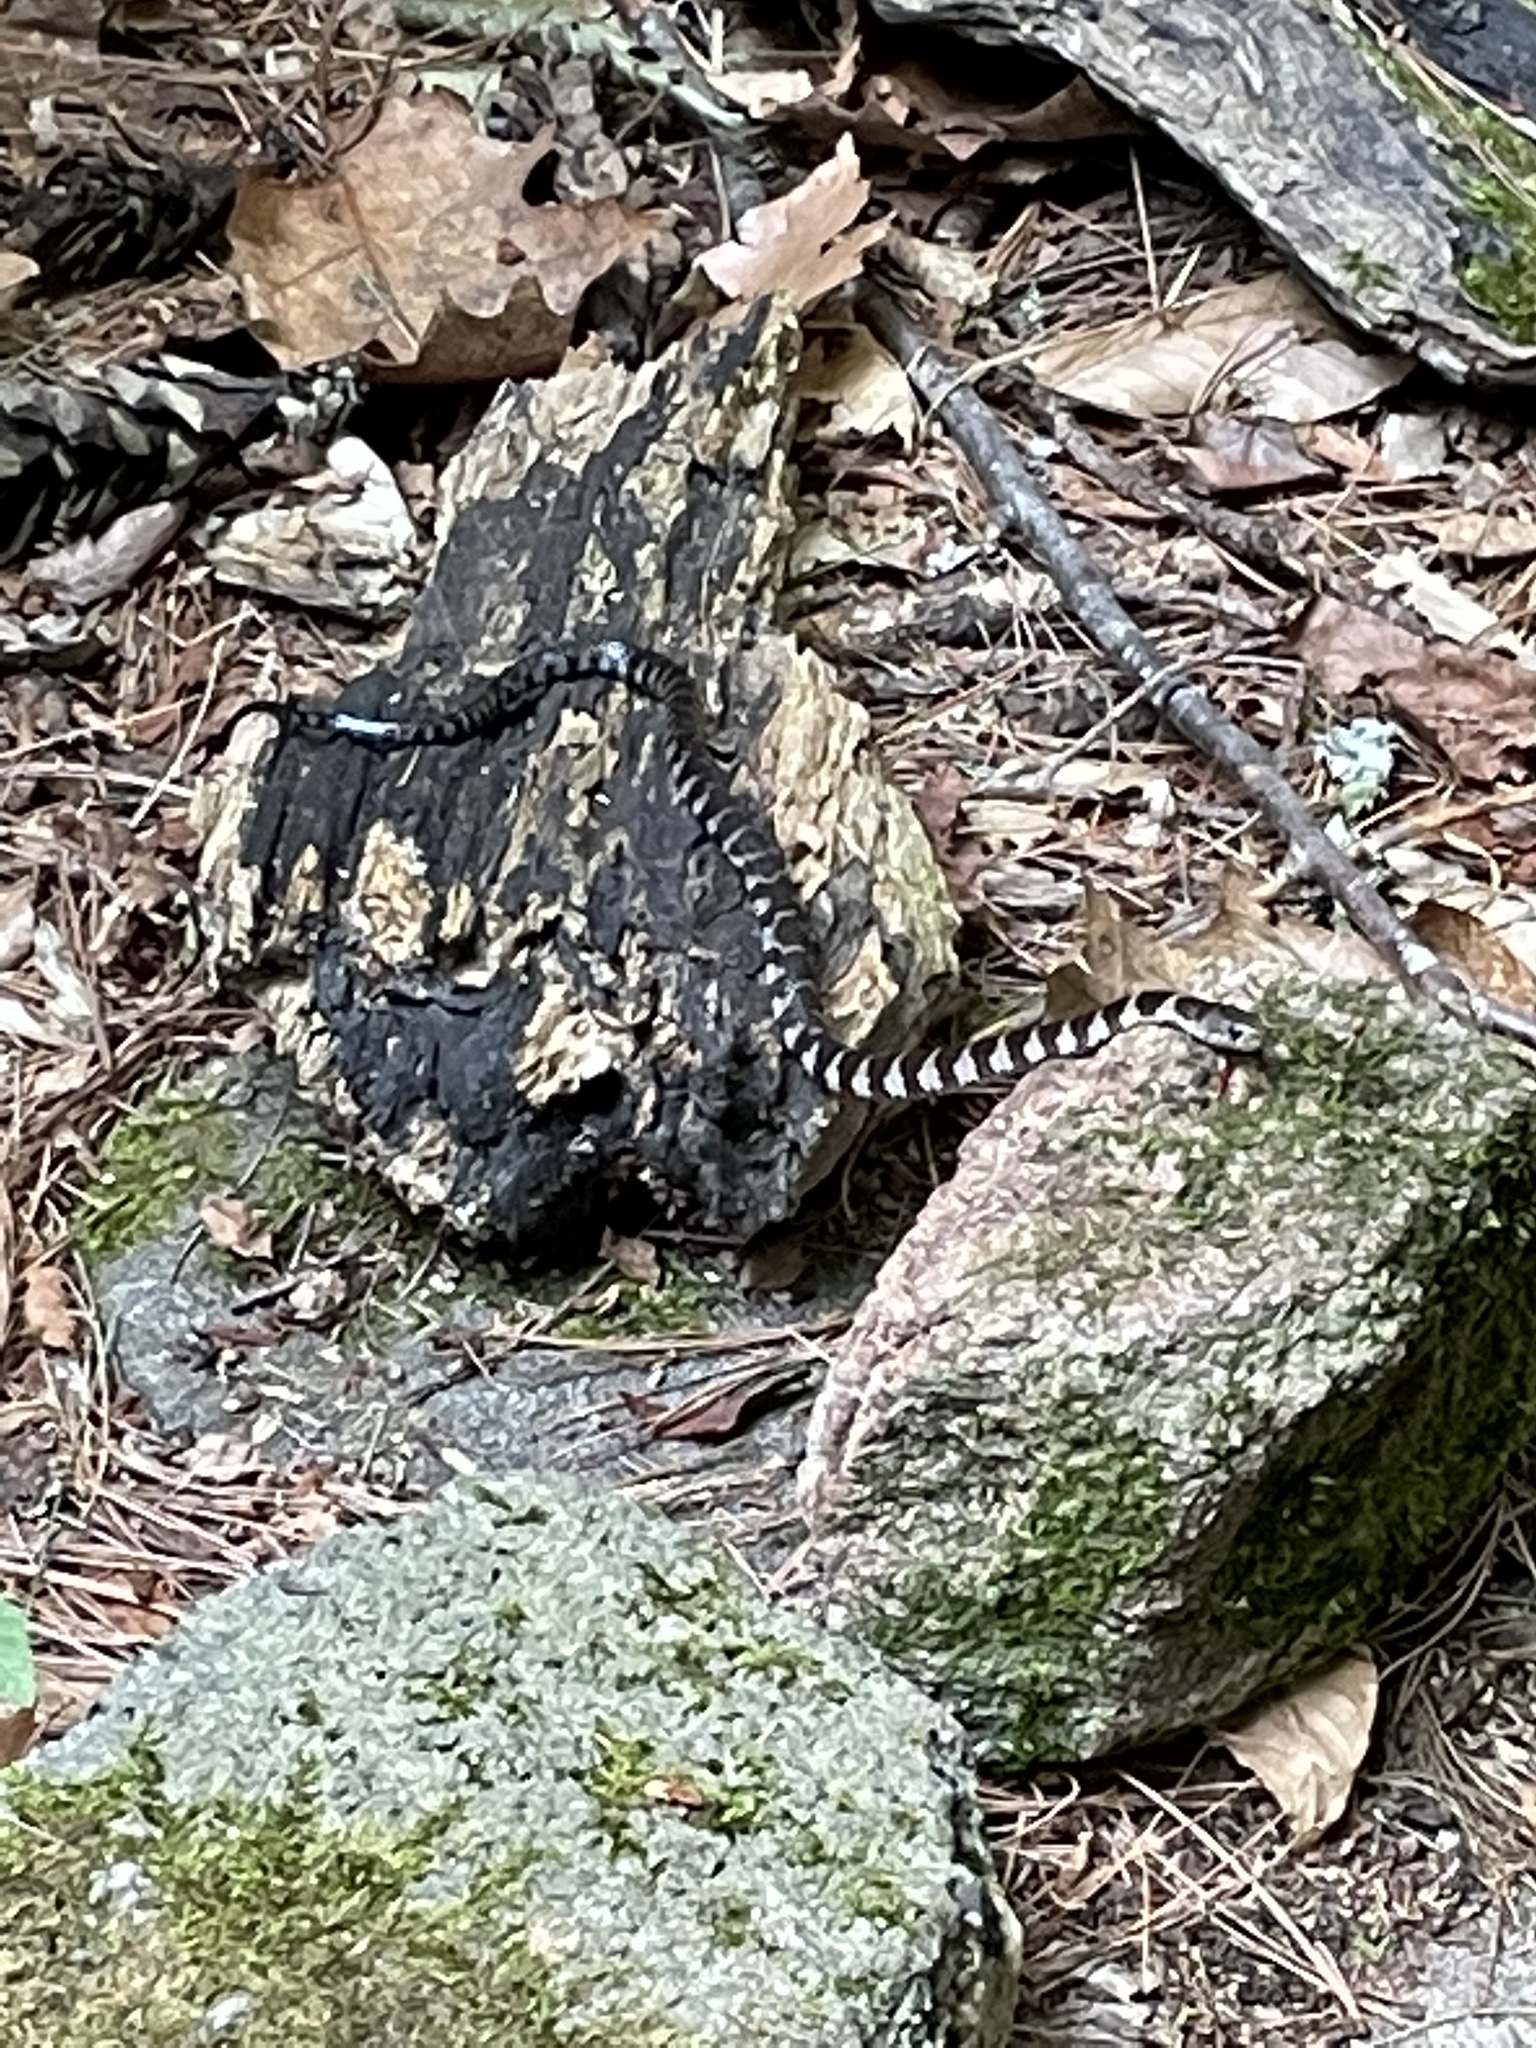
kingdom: Animalia
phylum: Chordata
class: Squamata
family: Colubridae
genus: Nerodia
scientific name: Nerodia sipedon
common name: Northern water snake
